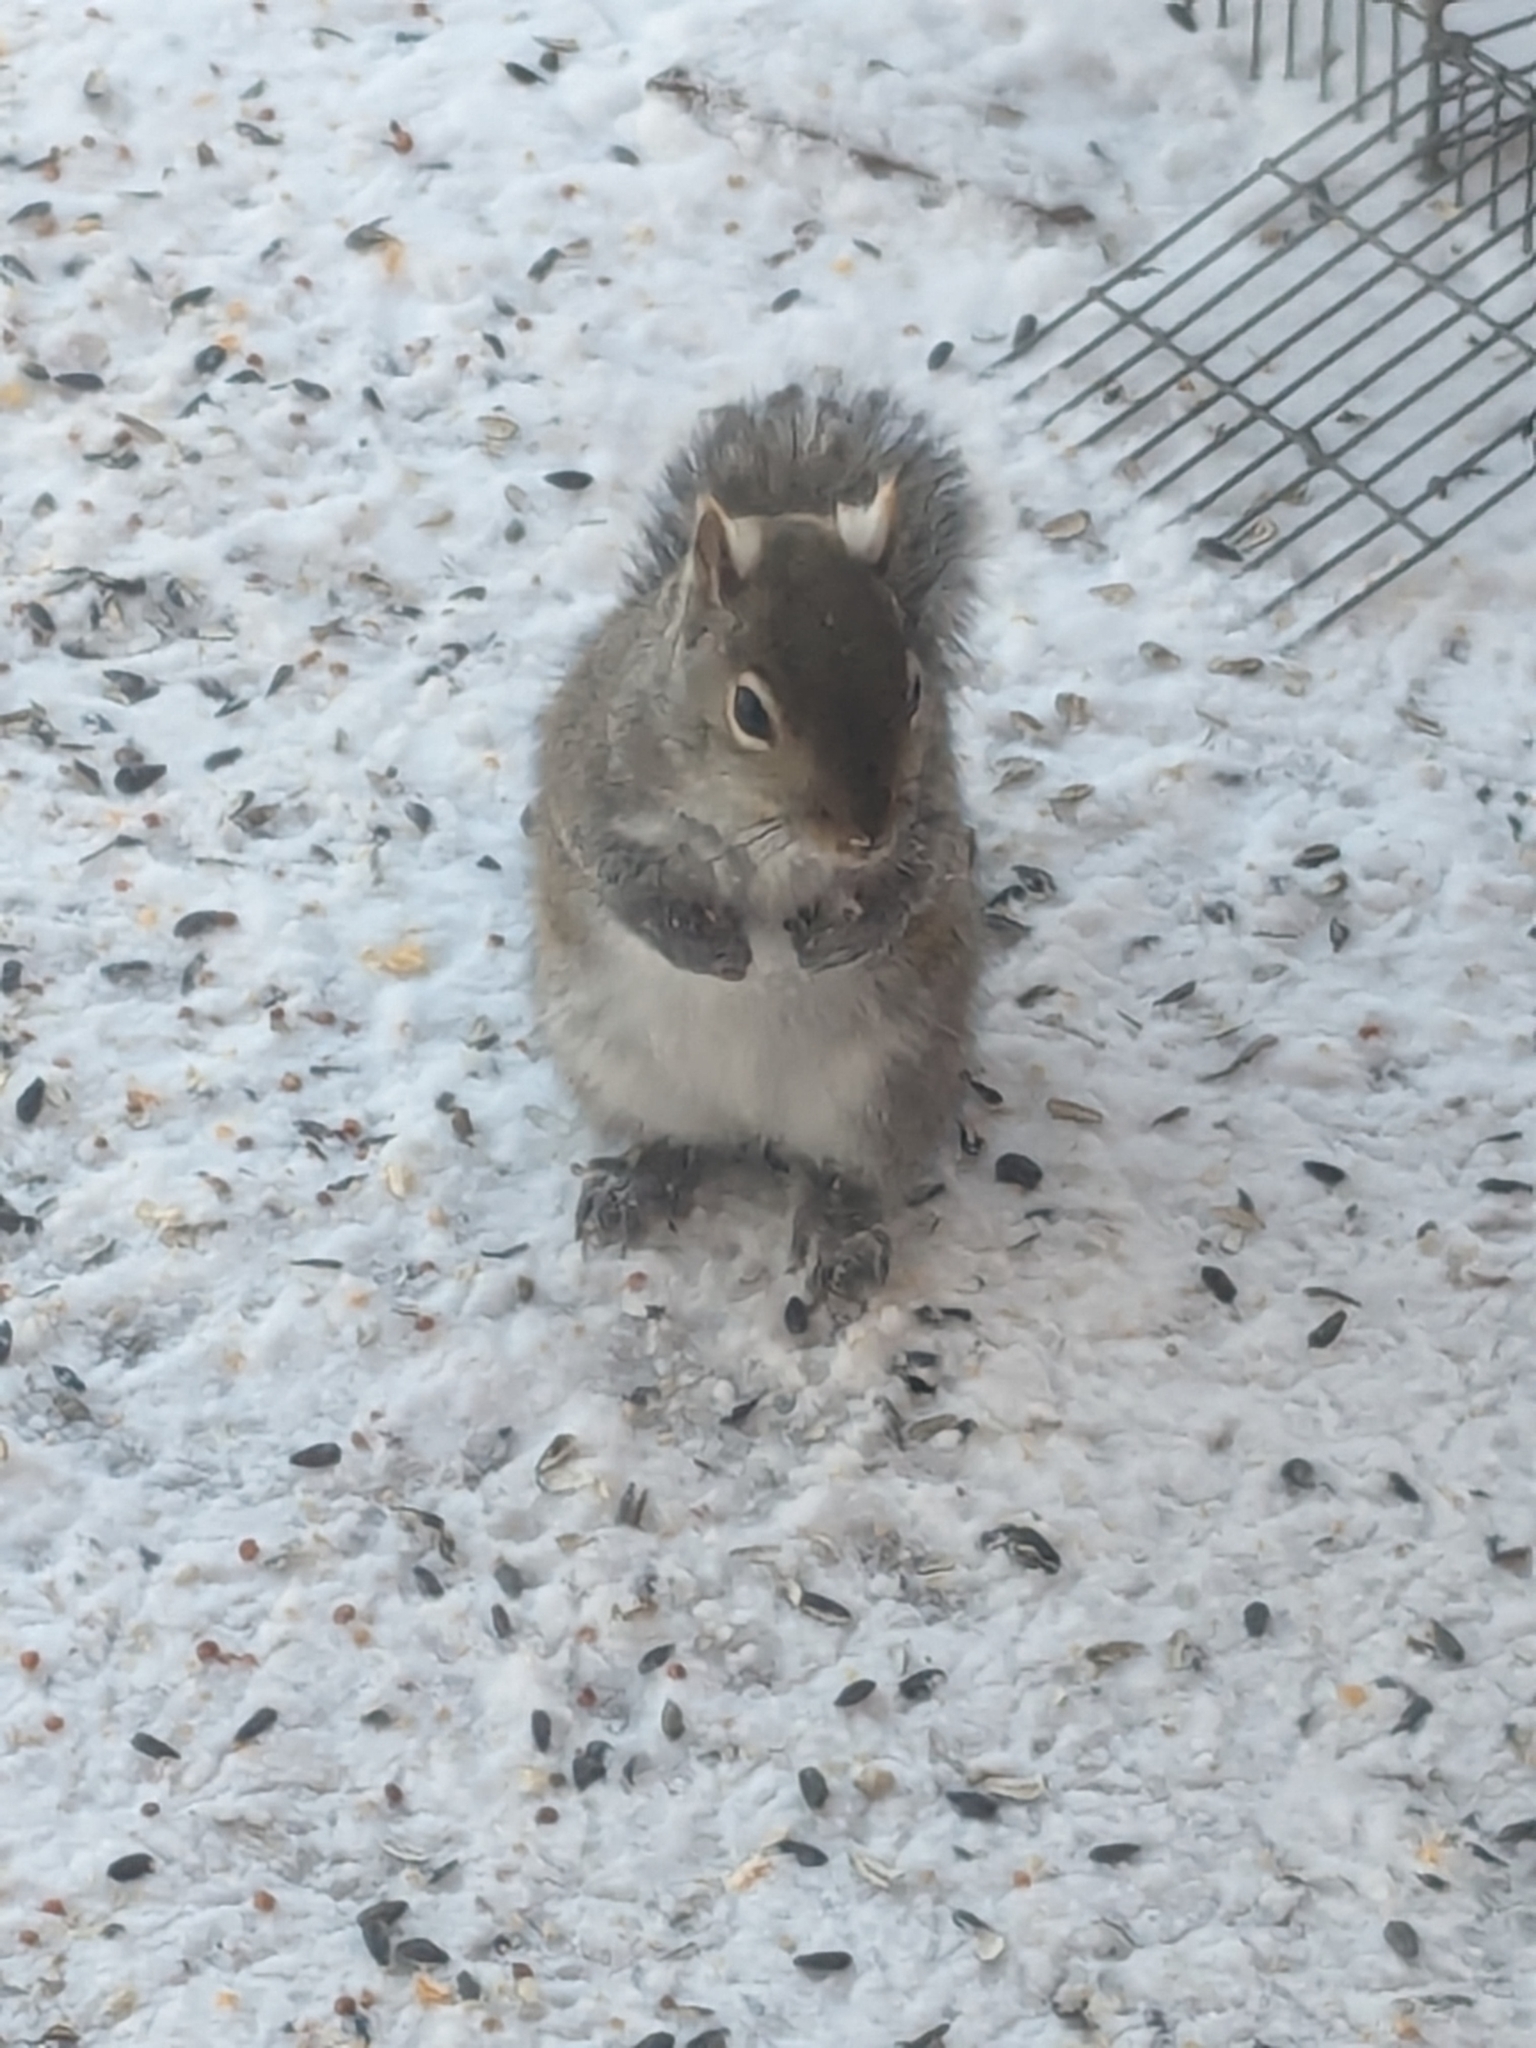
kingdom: Animalia
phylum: Chordata
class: Mammalia
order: Rodentia
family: Sciuridae
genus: Sciurus
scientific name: Sciurus carolinensis
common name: Eastern gray squirrel
